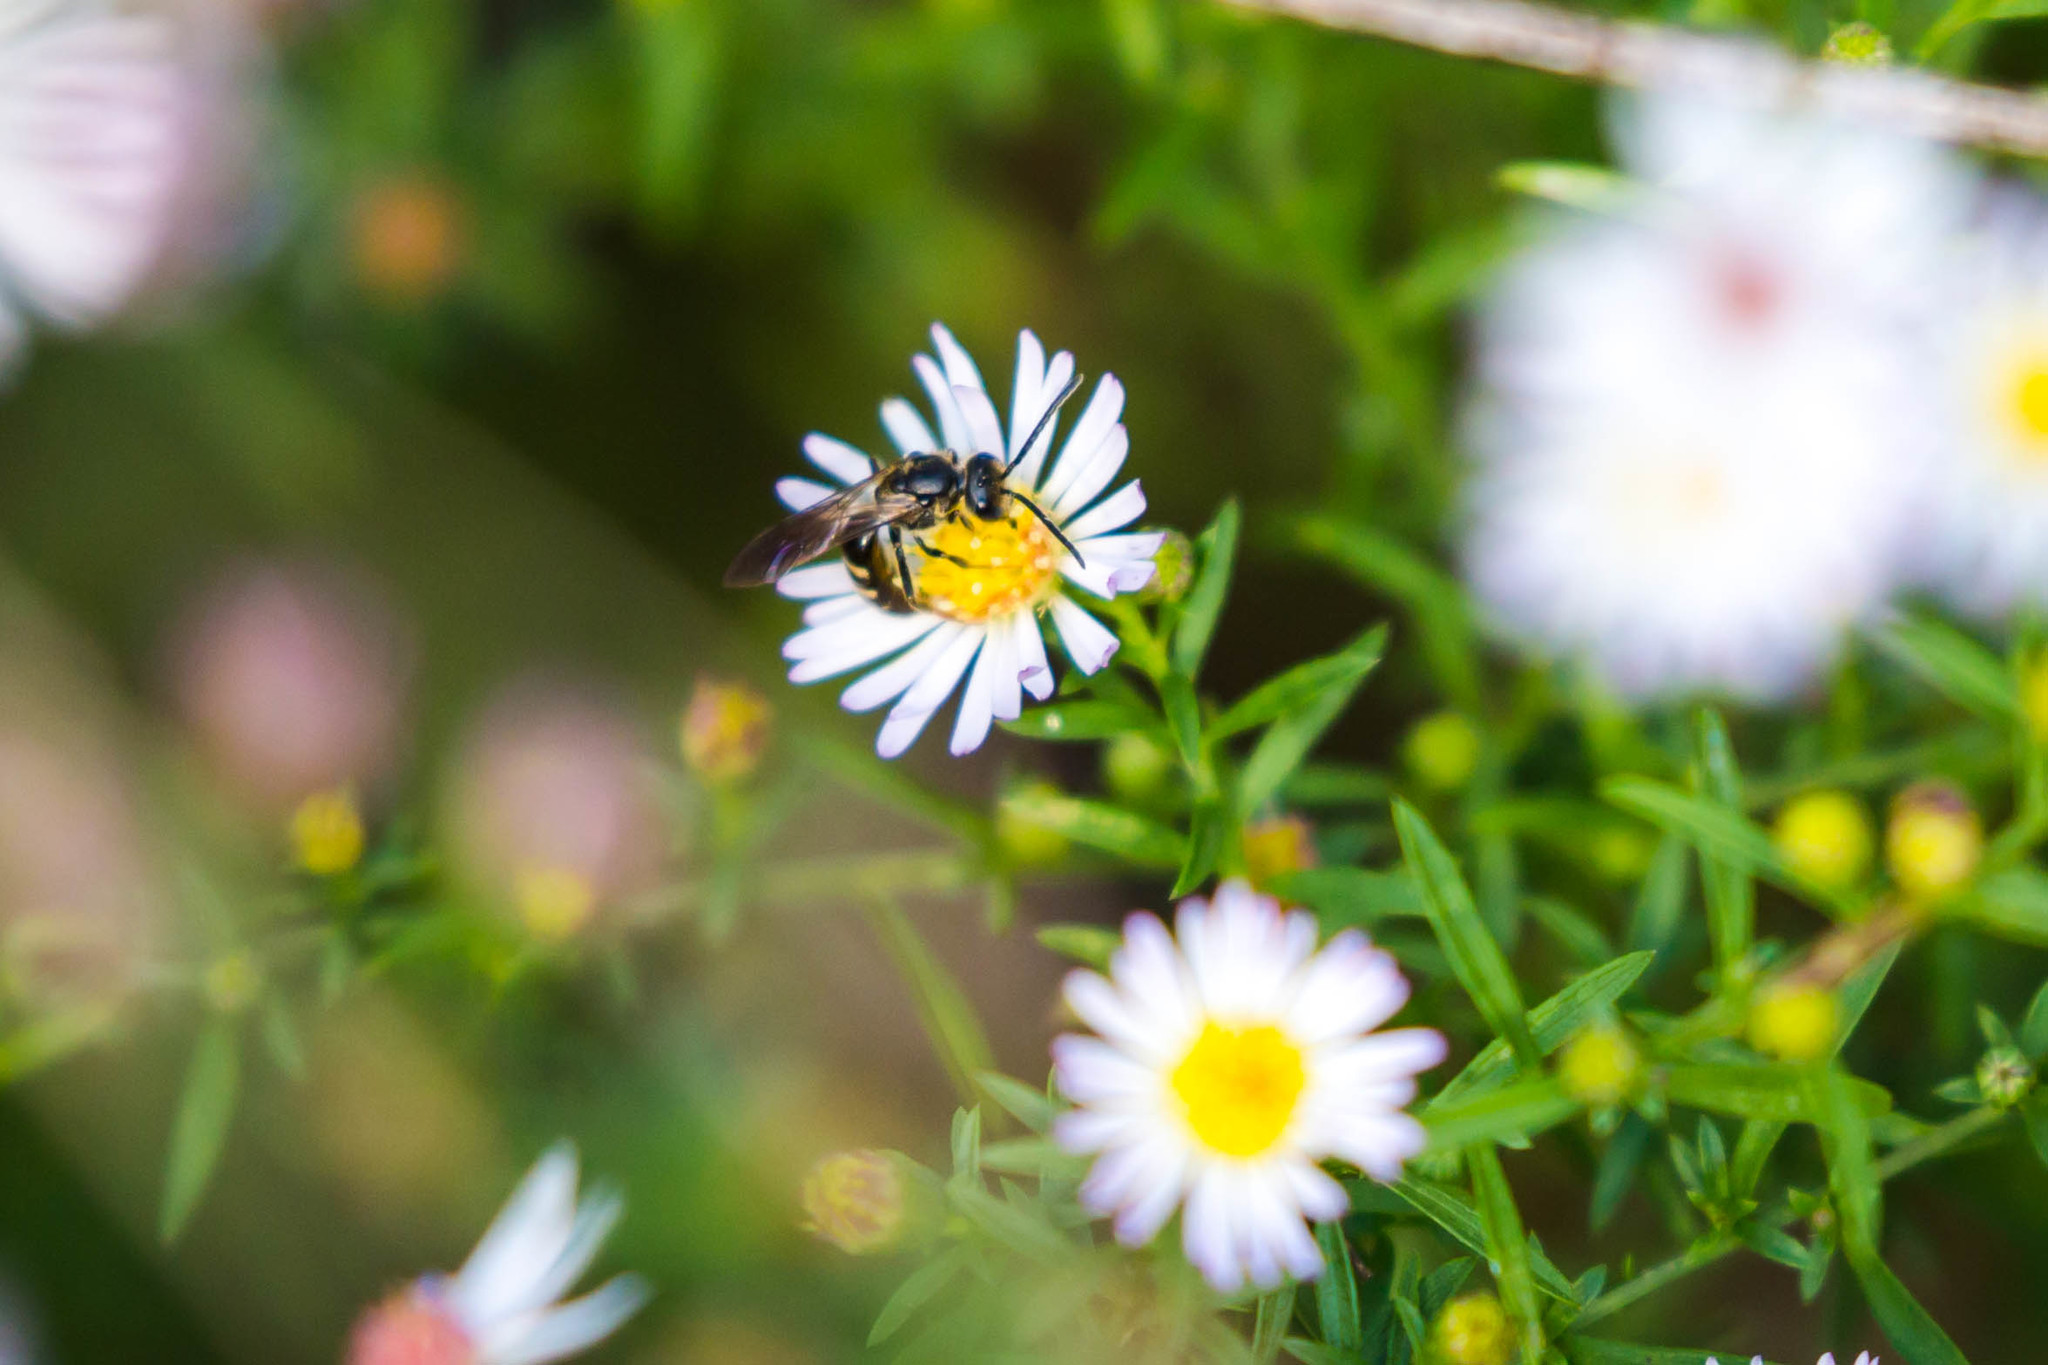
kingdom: Animalia
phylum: Arthropoda
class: Insecta
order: Hymenoptera
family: Halictidae
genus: Lasioglossum
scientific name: Lasioglossum fuscipenne
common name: Brown-winged sweat bee
